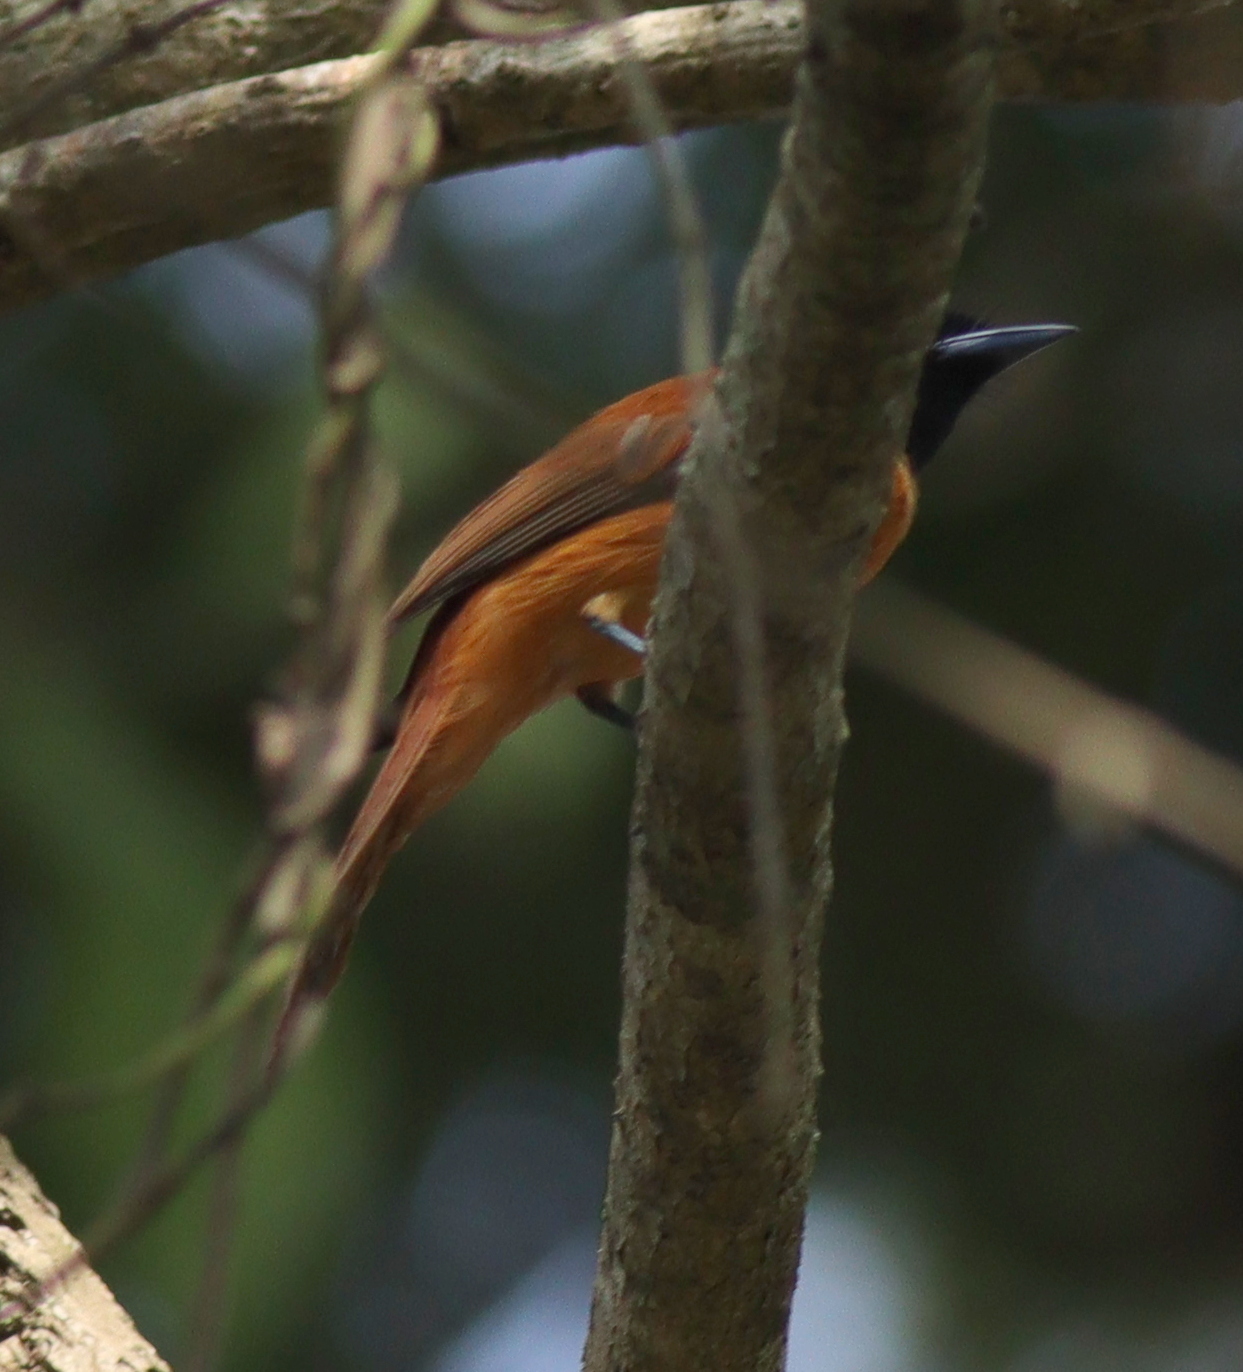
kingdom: Animalia
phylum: Chordata
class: Aves
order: Passeriformes
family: Monarchidae
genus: Terpsiphone
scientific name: Terpsiphone rufiventer
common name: Red-bellied paradise flycatcher
